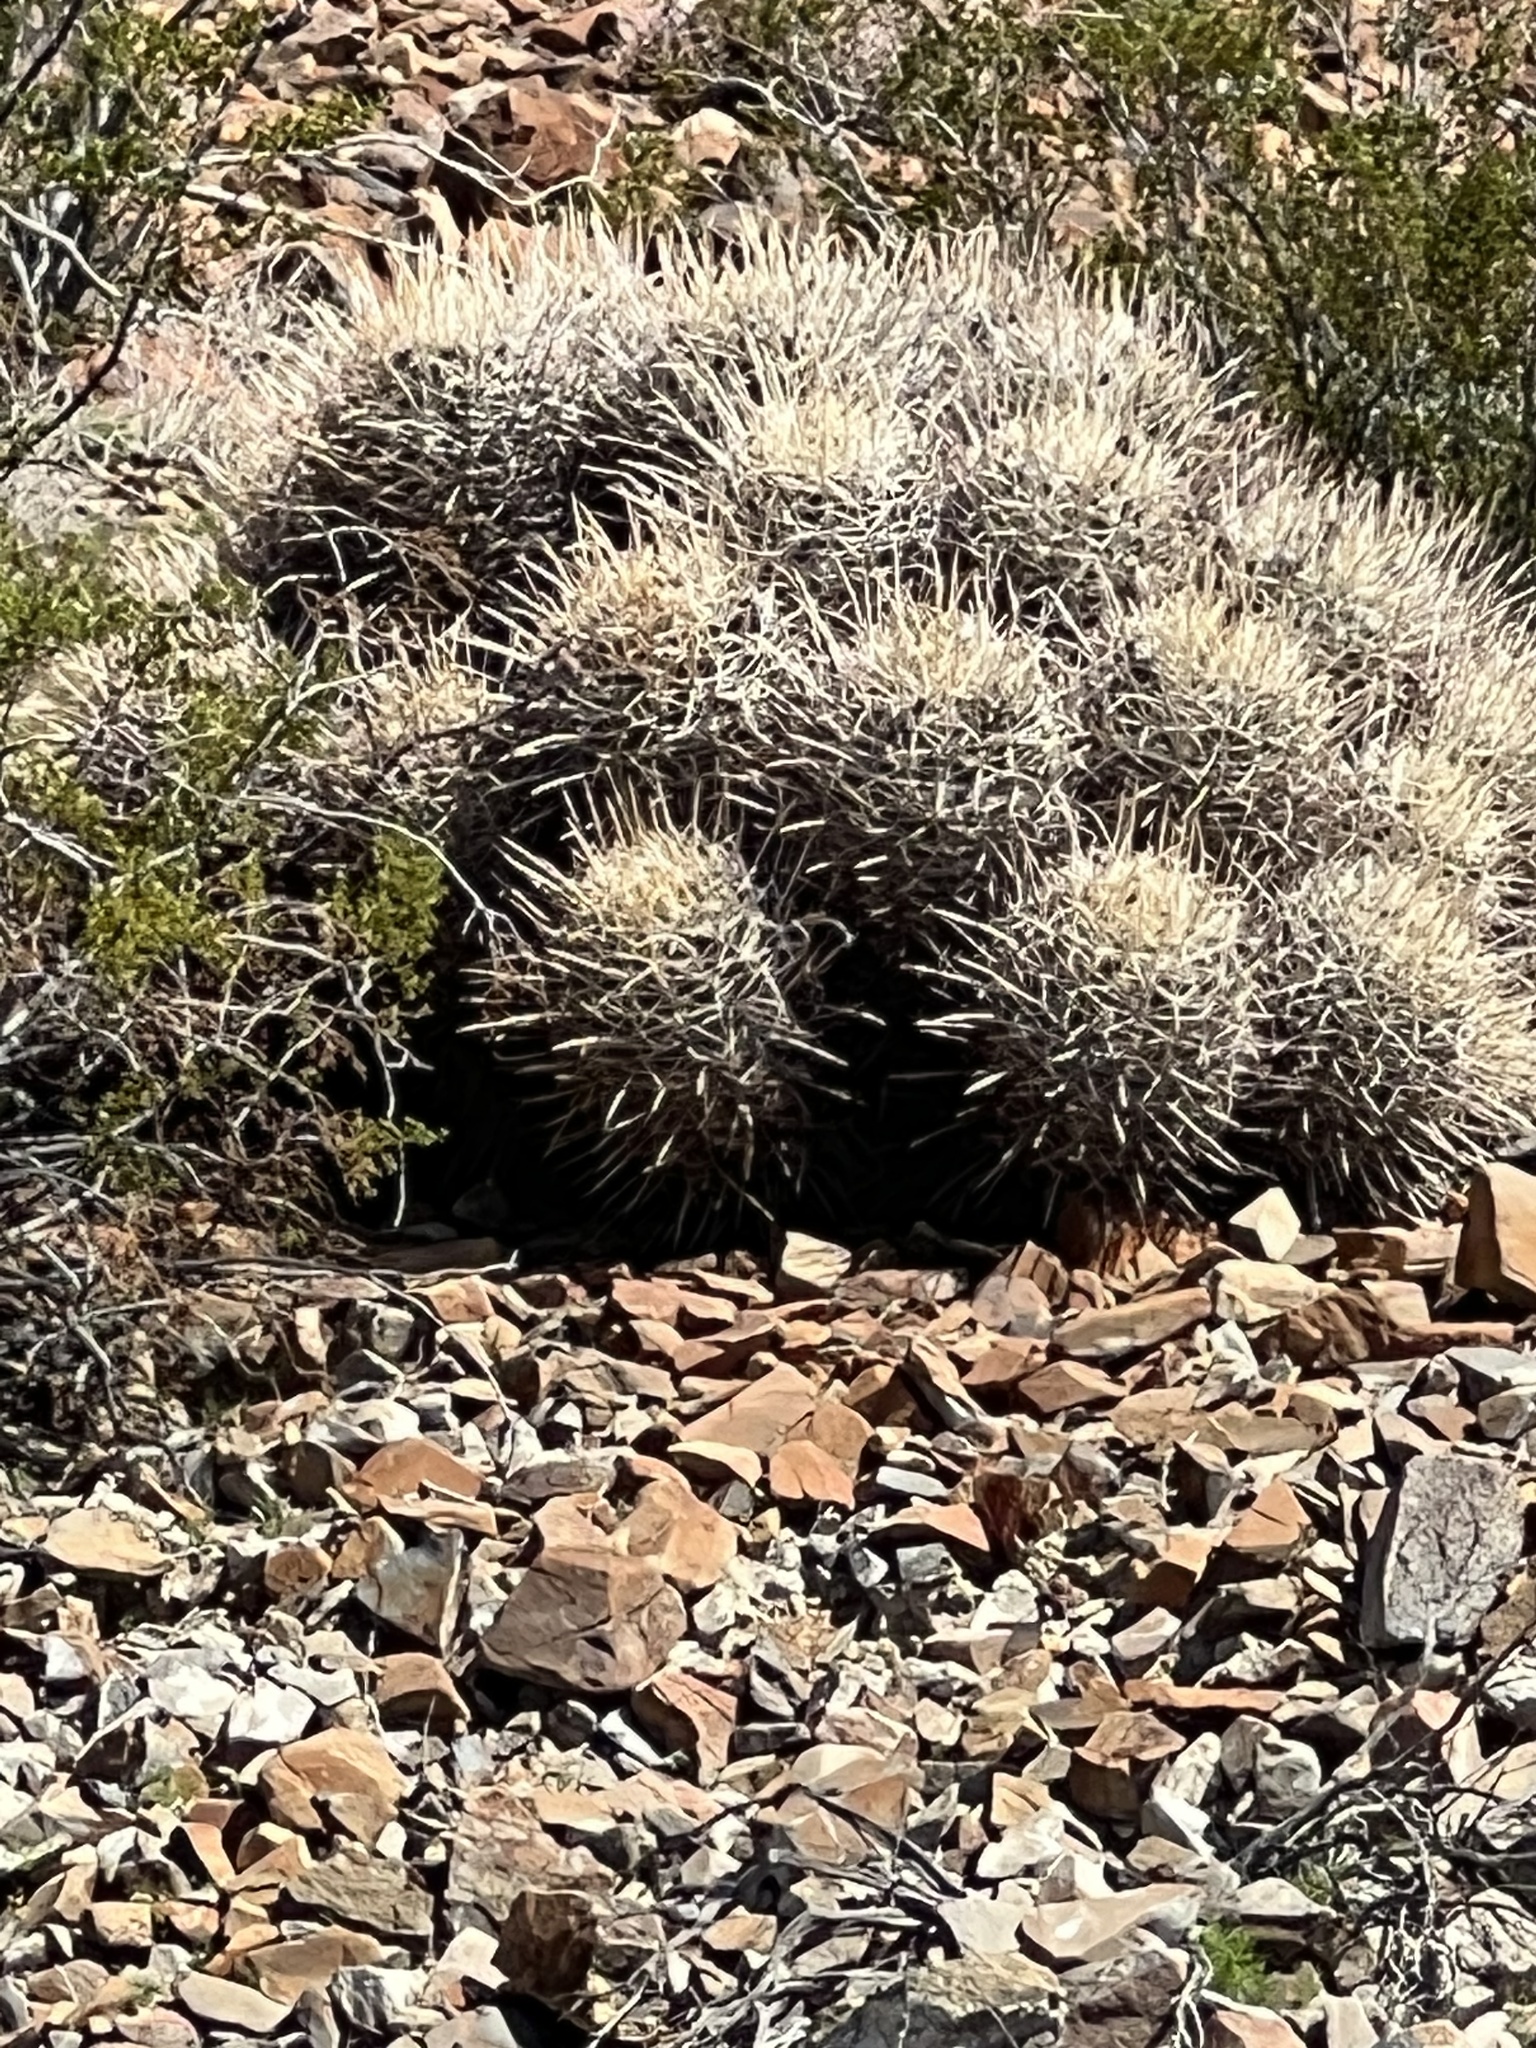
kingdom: Plantae
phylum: Tracheophyta
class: Magnoliopsida
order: Caryophyllales
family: Cactaceae
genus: Echinocactus
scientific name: Echinocactus polycephalus
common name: Cottontop cactus
